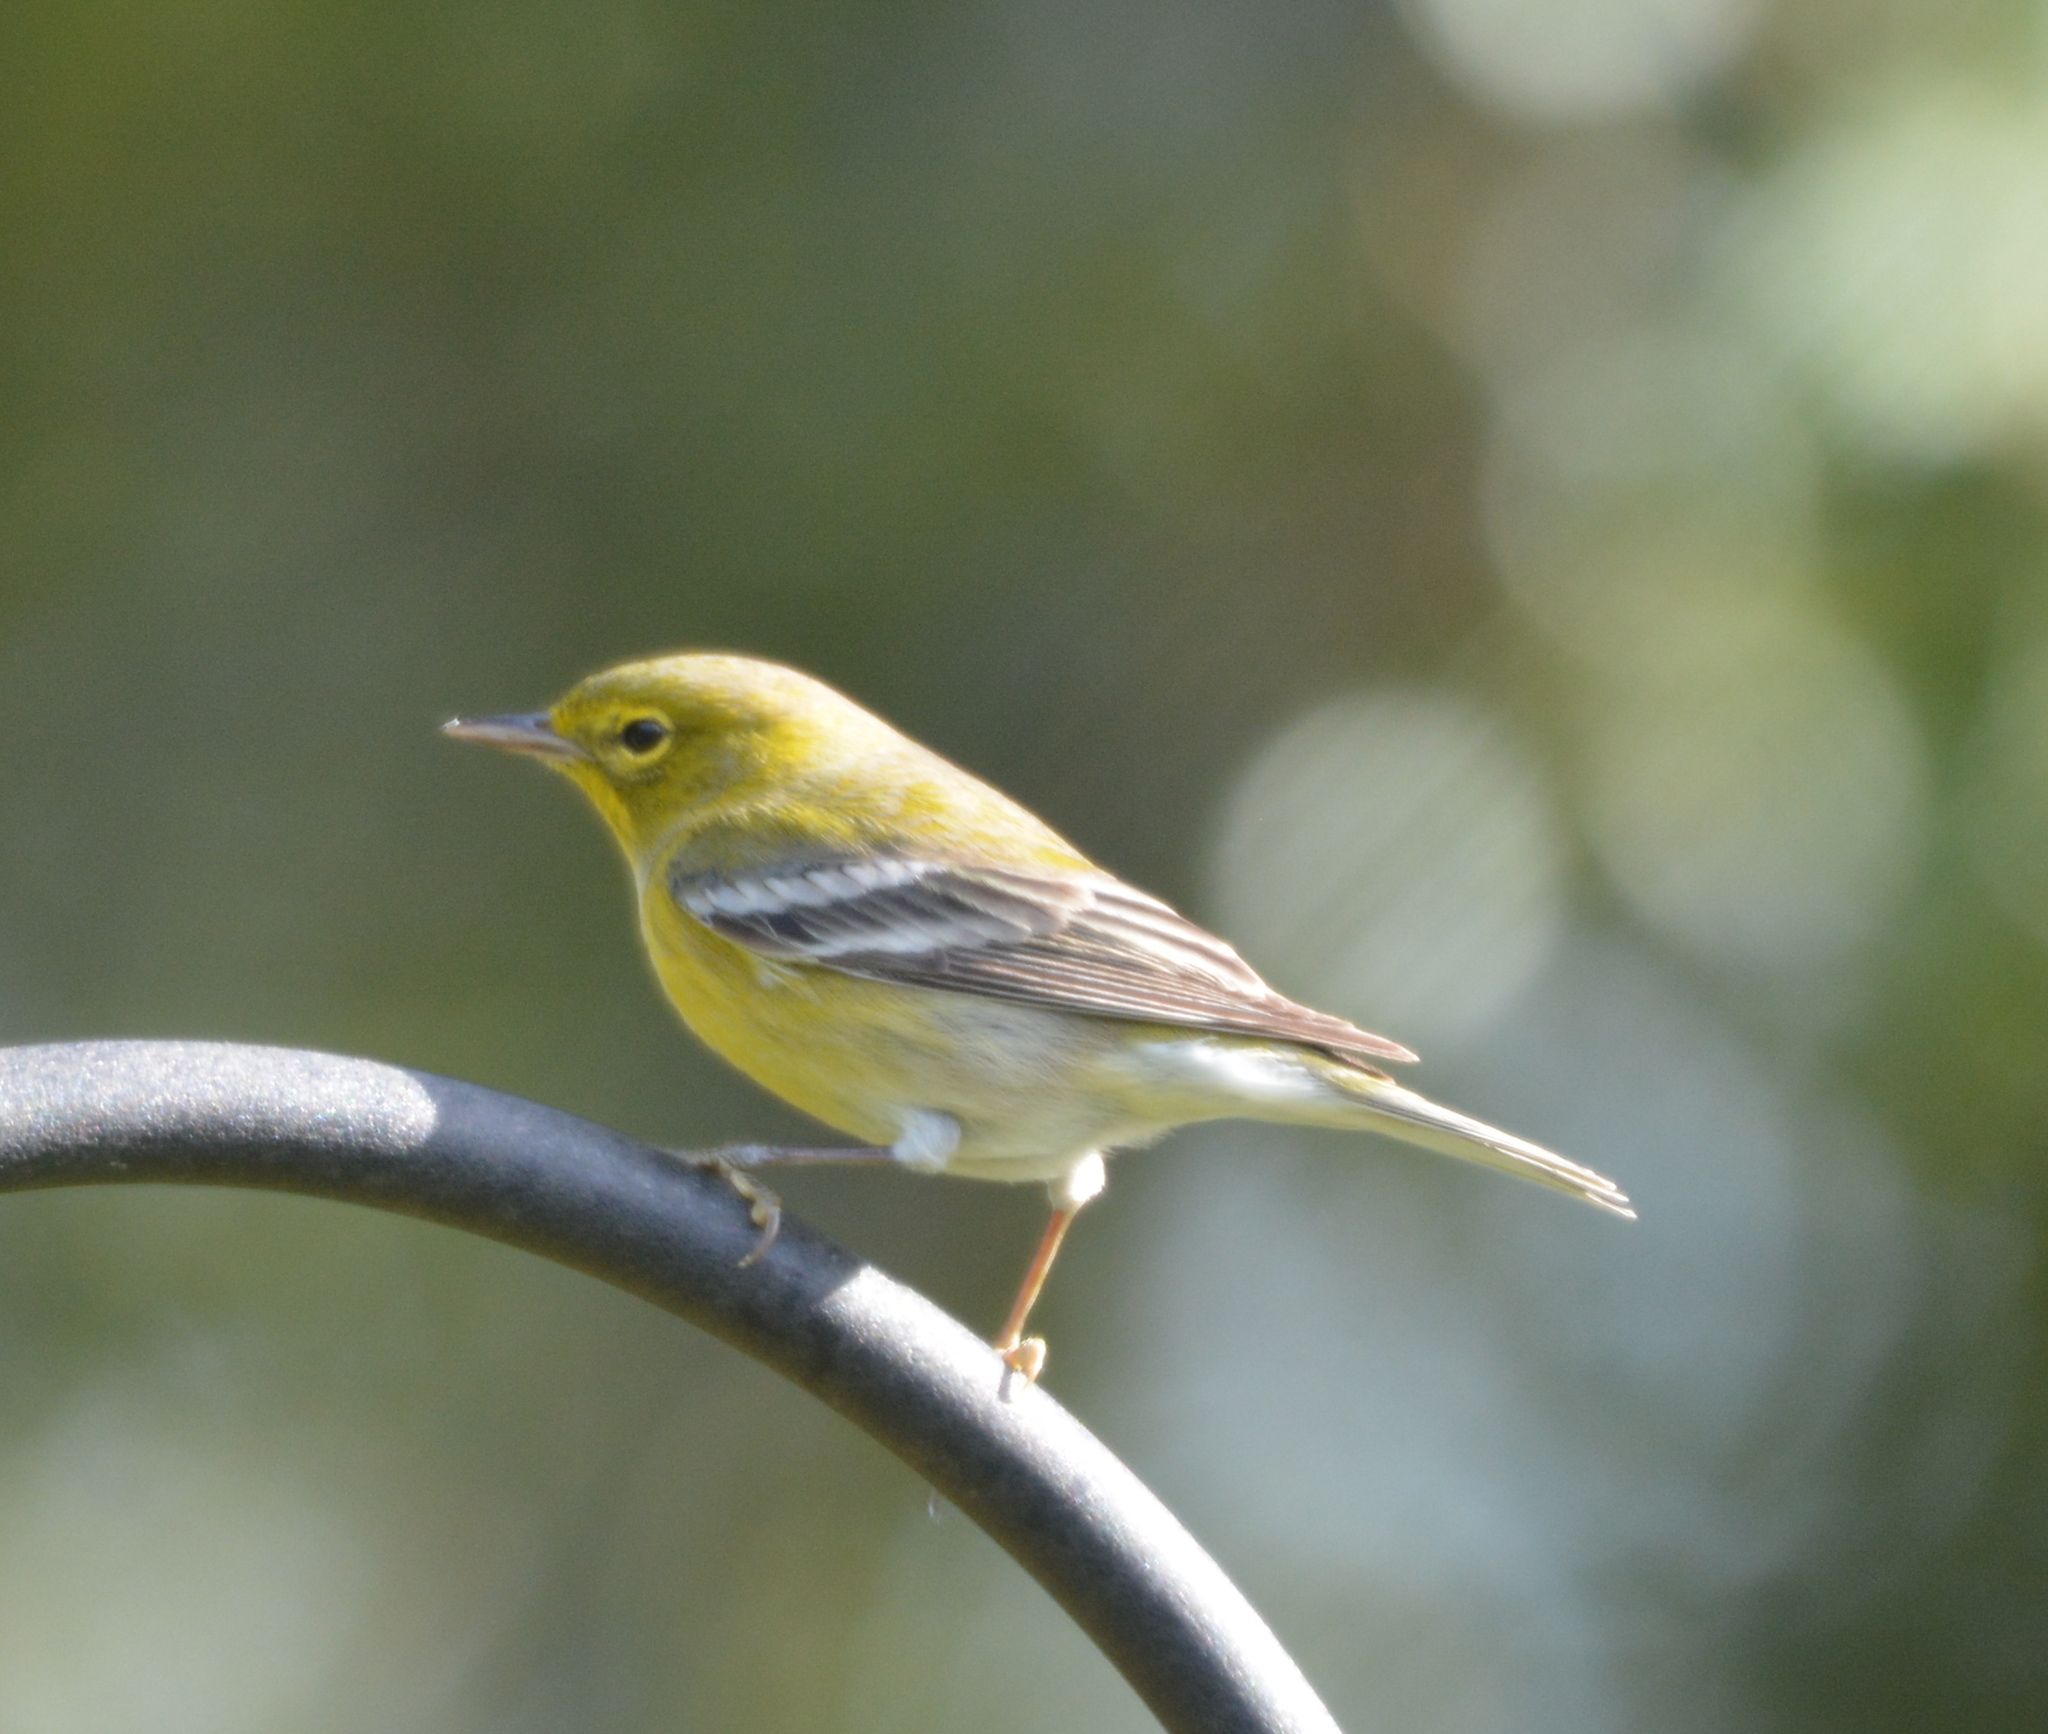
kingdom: Animalia
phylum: Chordata
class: Aves
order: Passeriformes
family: Parulidae
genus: Setophaga
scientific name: Setophaga pinus
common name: Pine warbler
